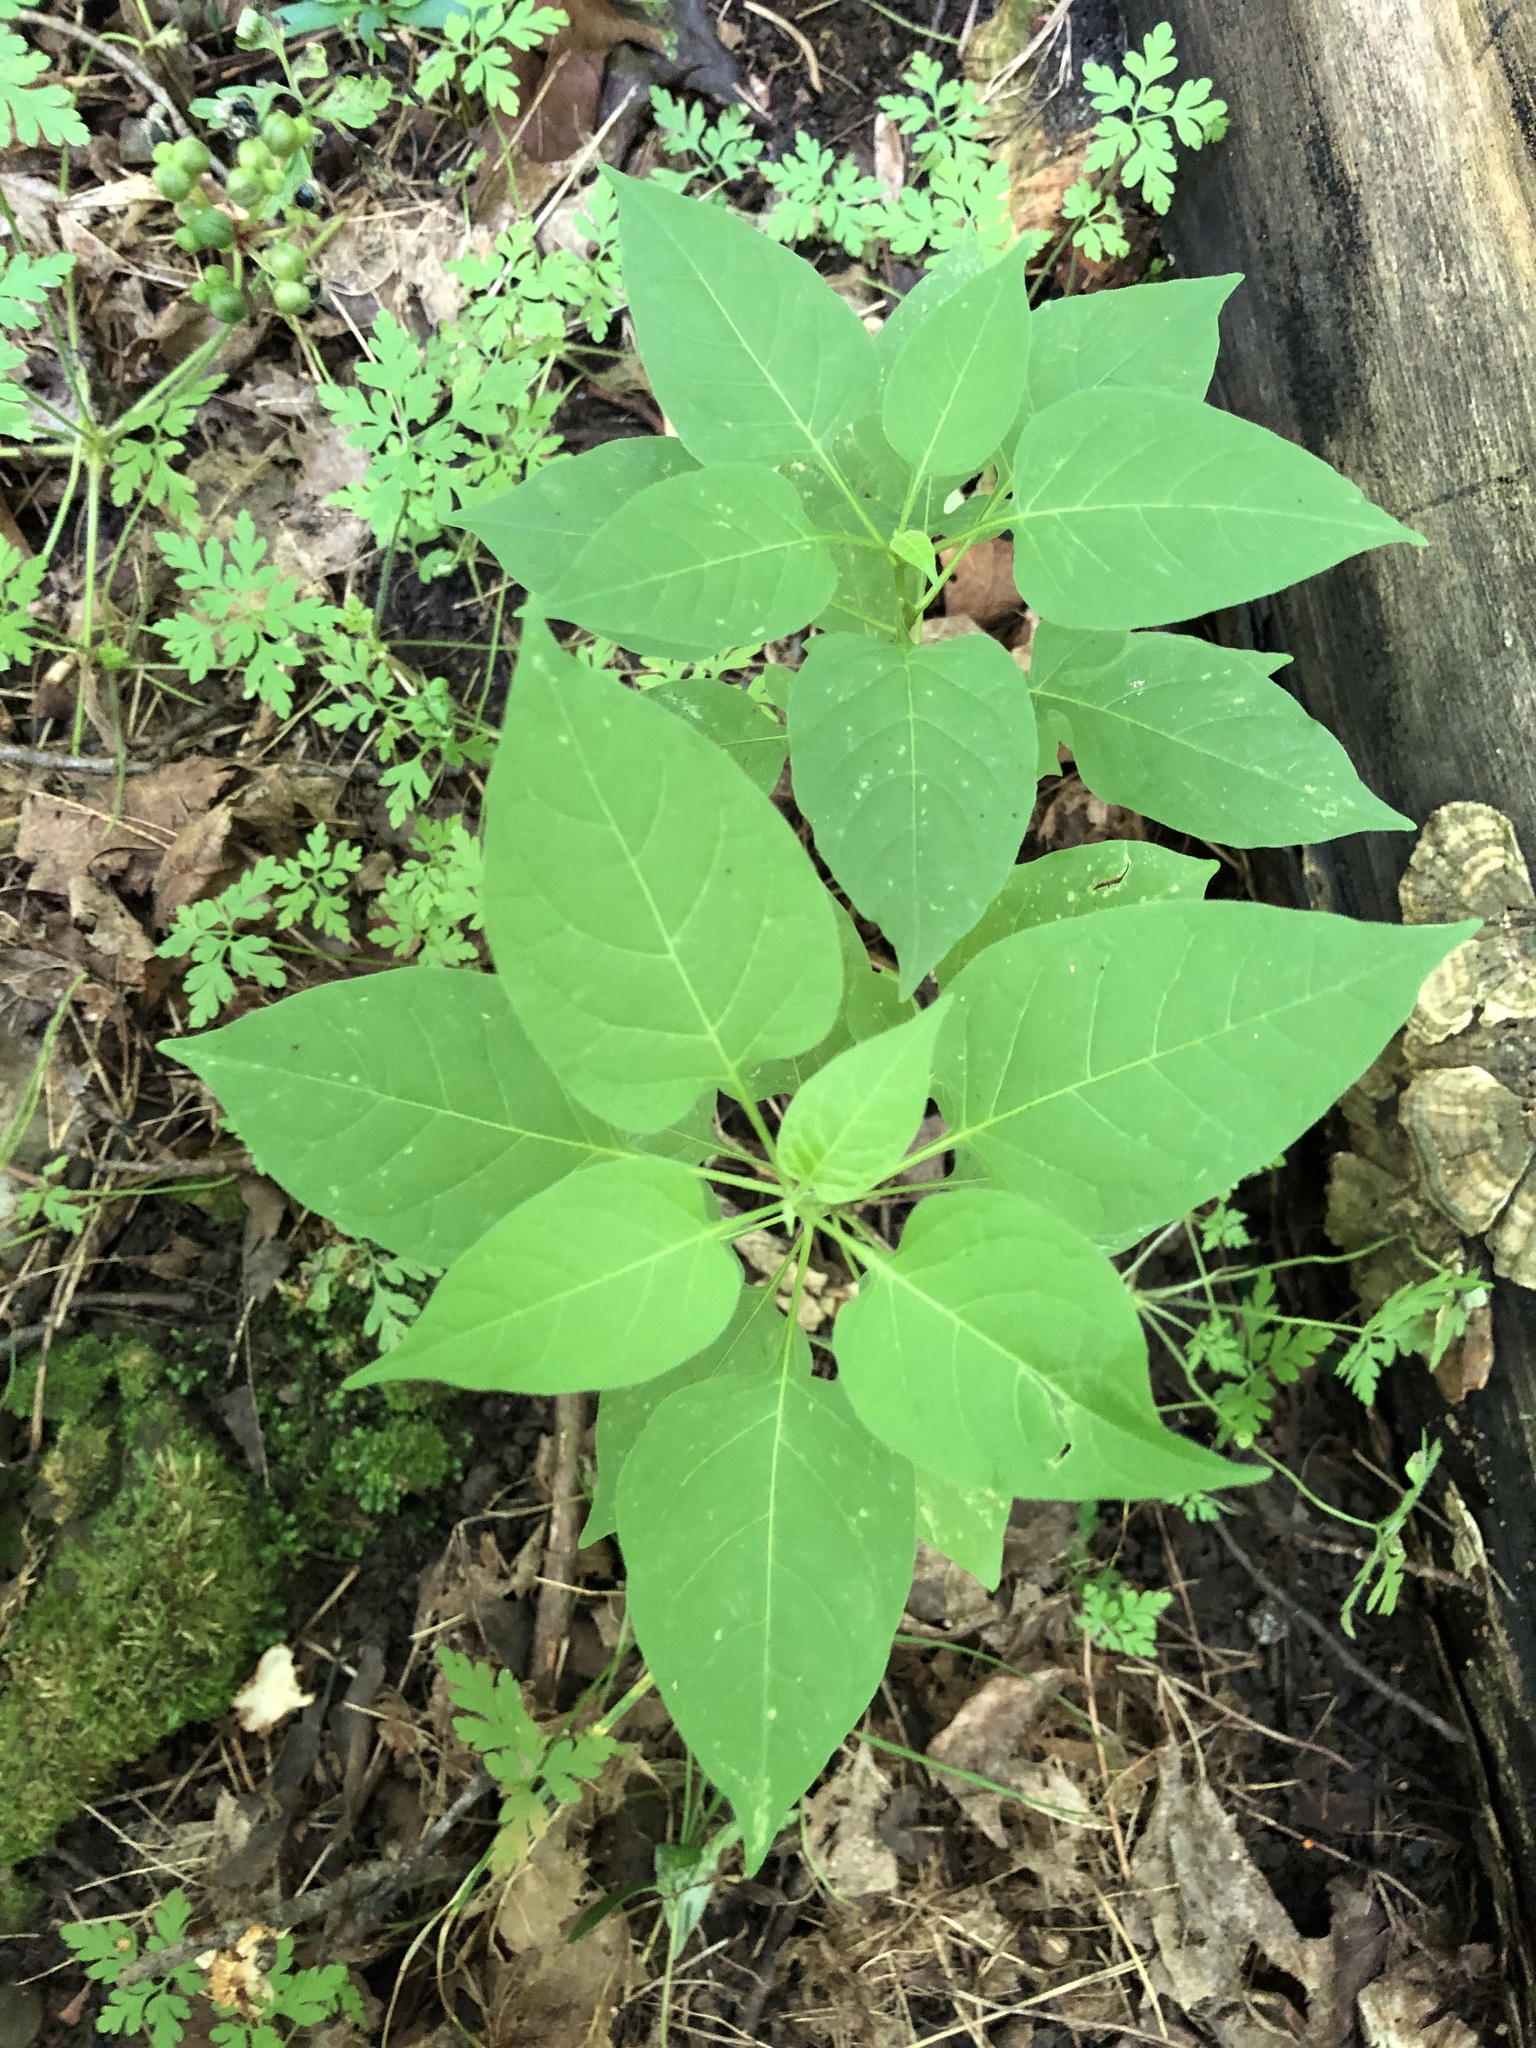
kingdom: Plantae
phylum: Tracheophyta
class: Magnoliopsida
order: Solanales
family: Solanaceae
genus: Solanum
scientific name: Solanum dulcamara
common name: Climbing nightshade
